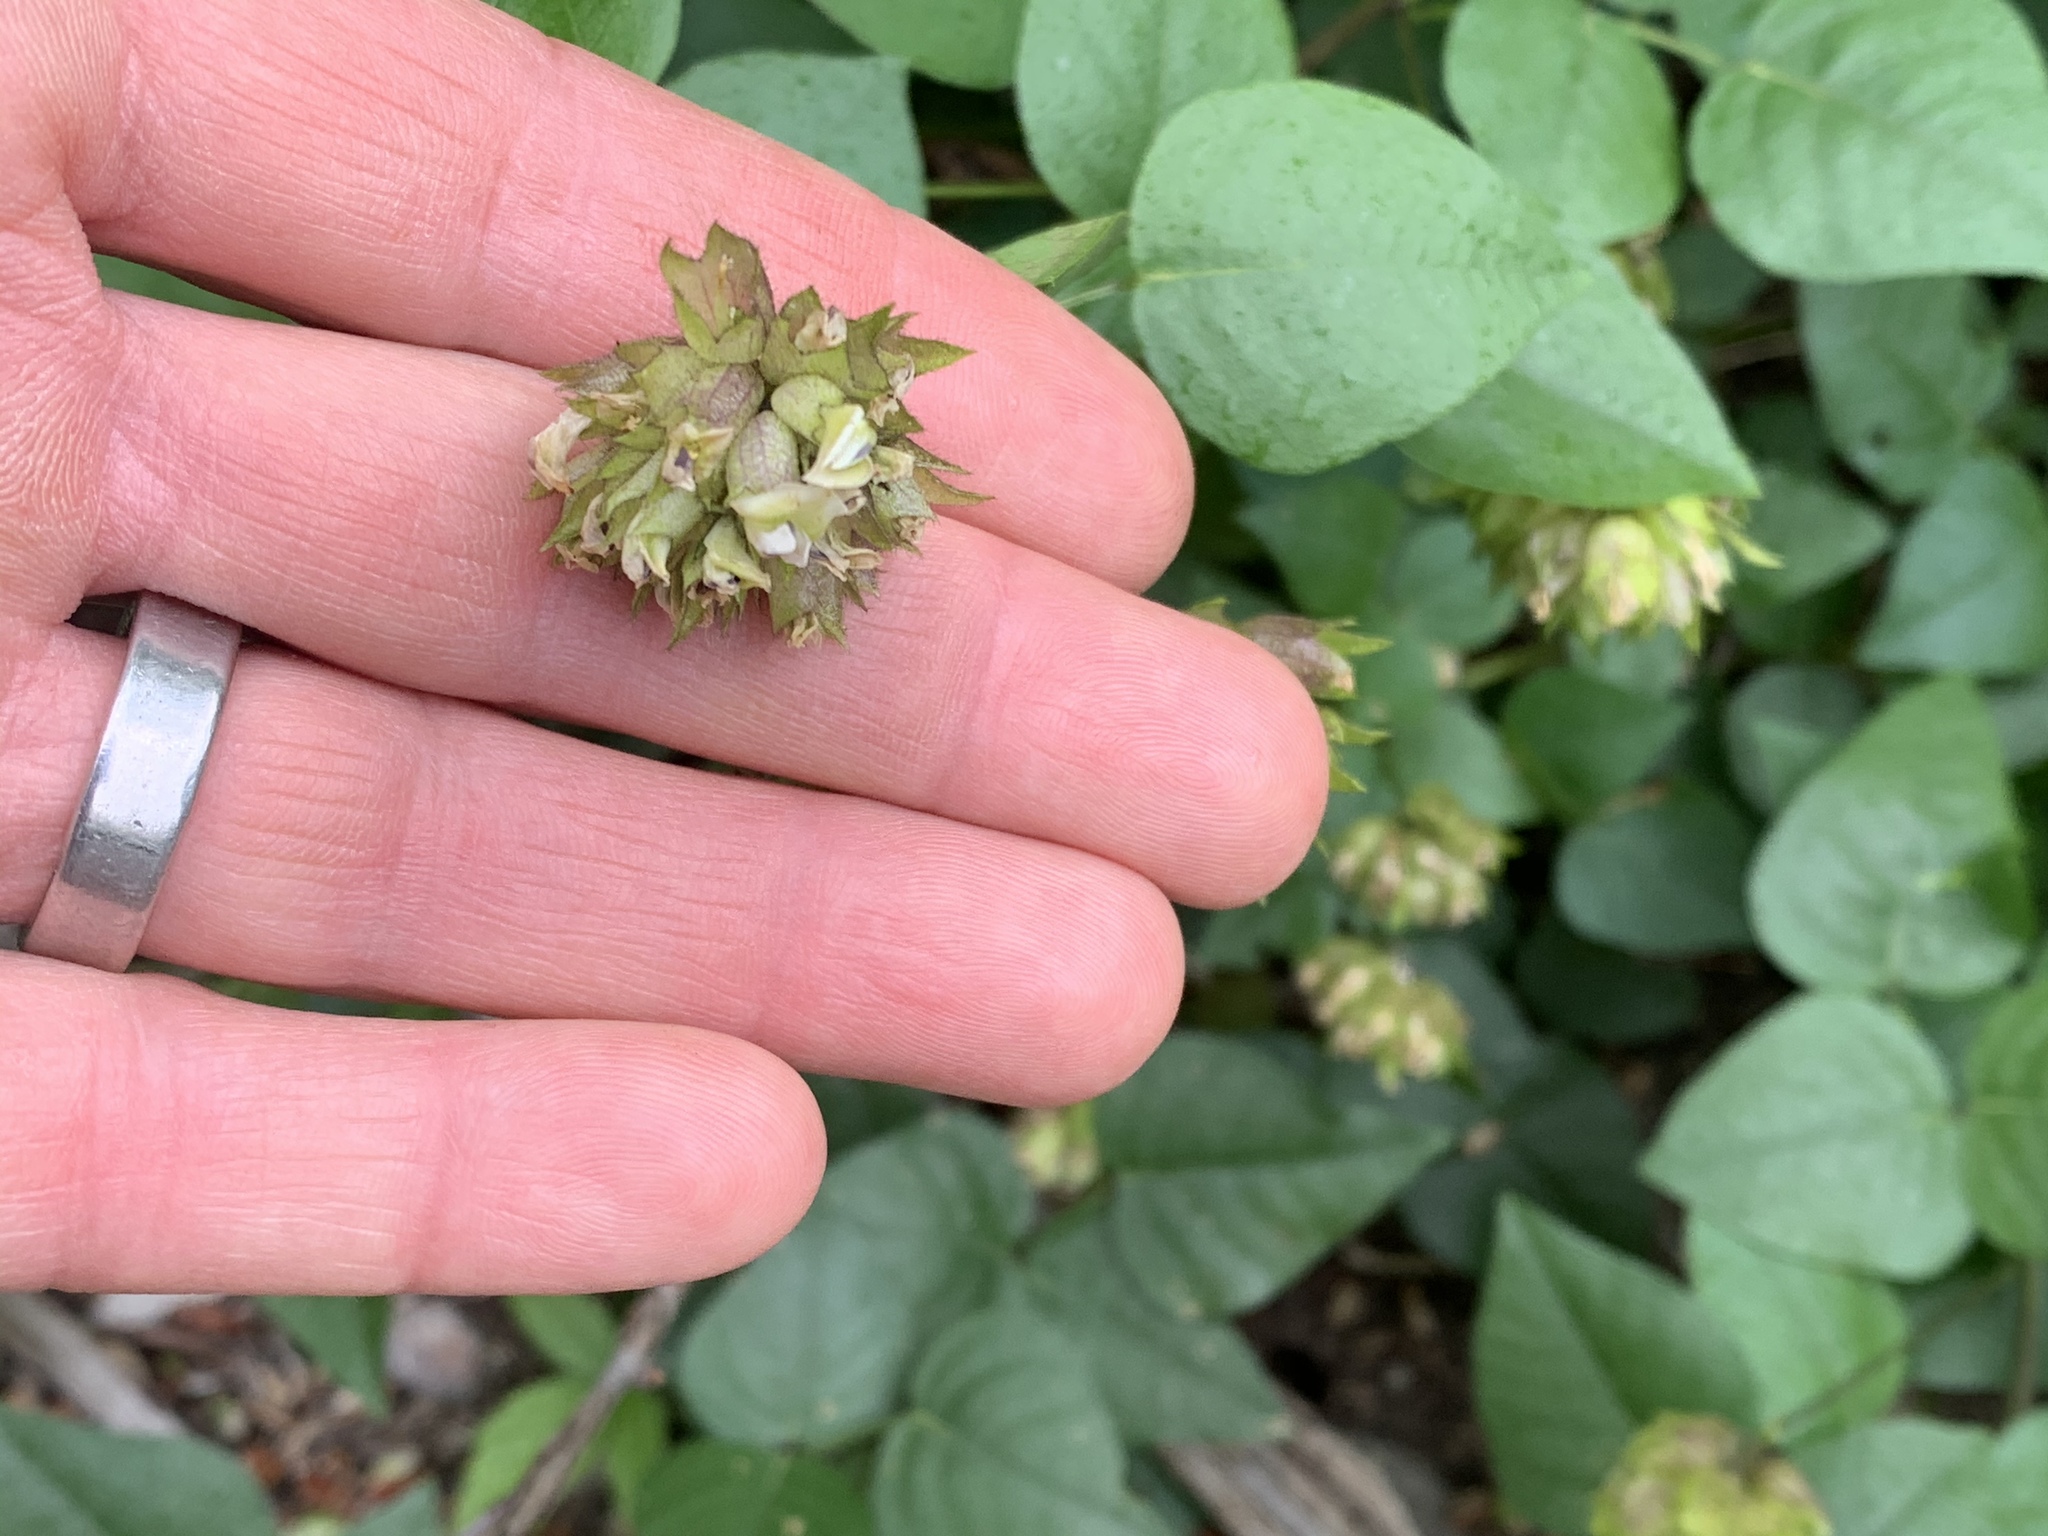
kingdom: Plantae
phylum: Tracheophyta
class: Magnoliopsida
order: Fabales
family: Fabaceae
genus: Rupertia
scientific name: Rupertia physodes
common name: California-tea
